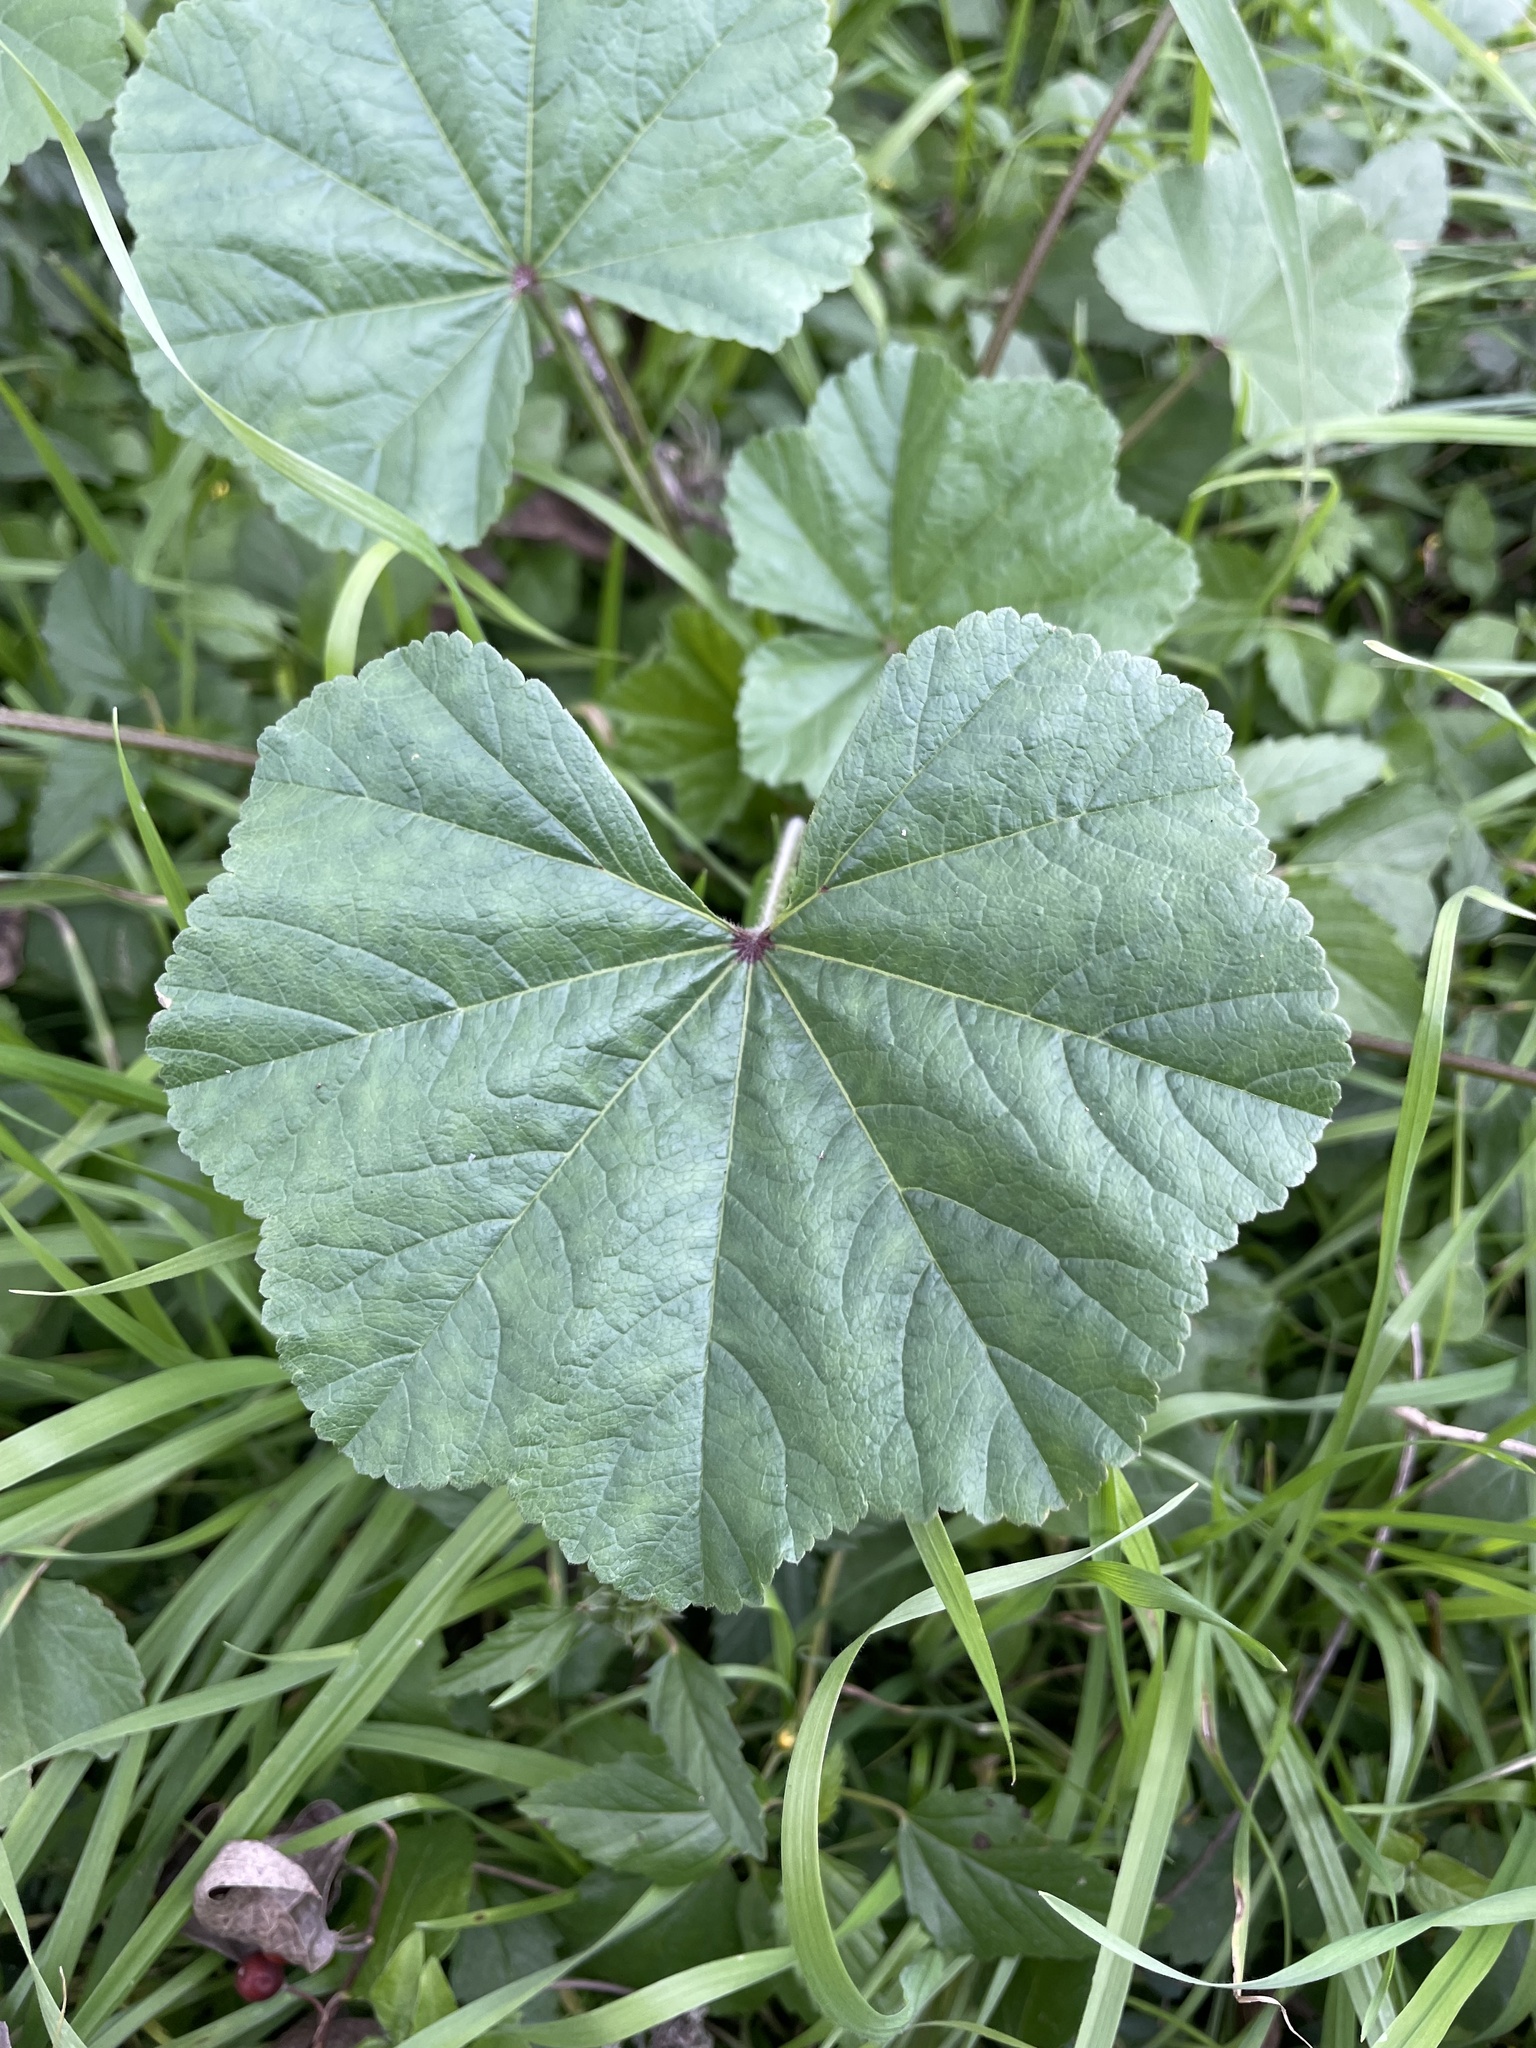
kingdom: Plantae
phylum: Tracheophyta
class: Magnoliopsida
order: Malvales
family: Malvaceae
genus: Malva
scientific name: Malva parviflora
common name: Least mallow
